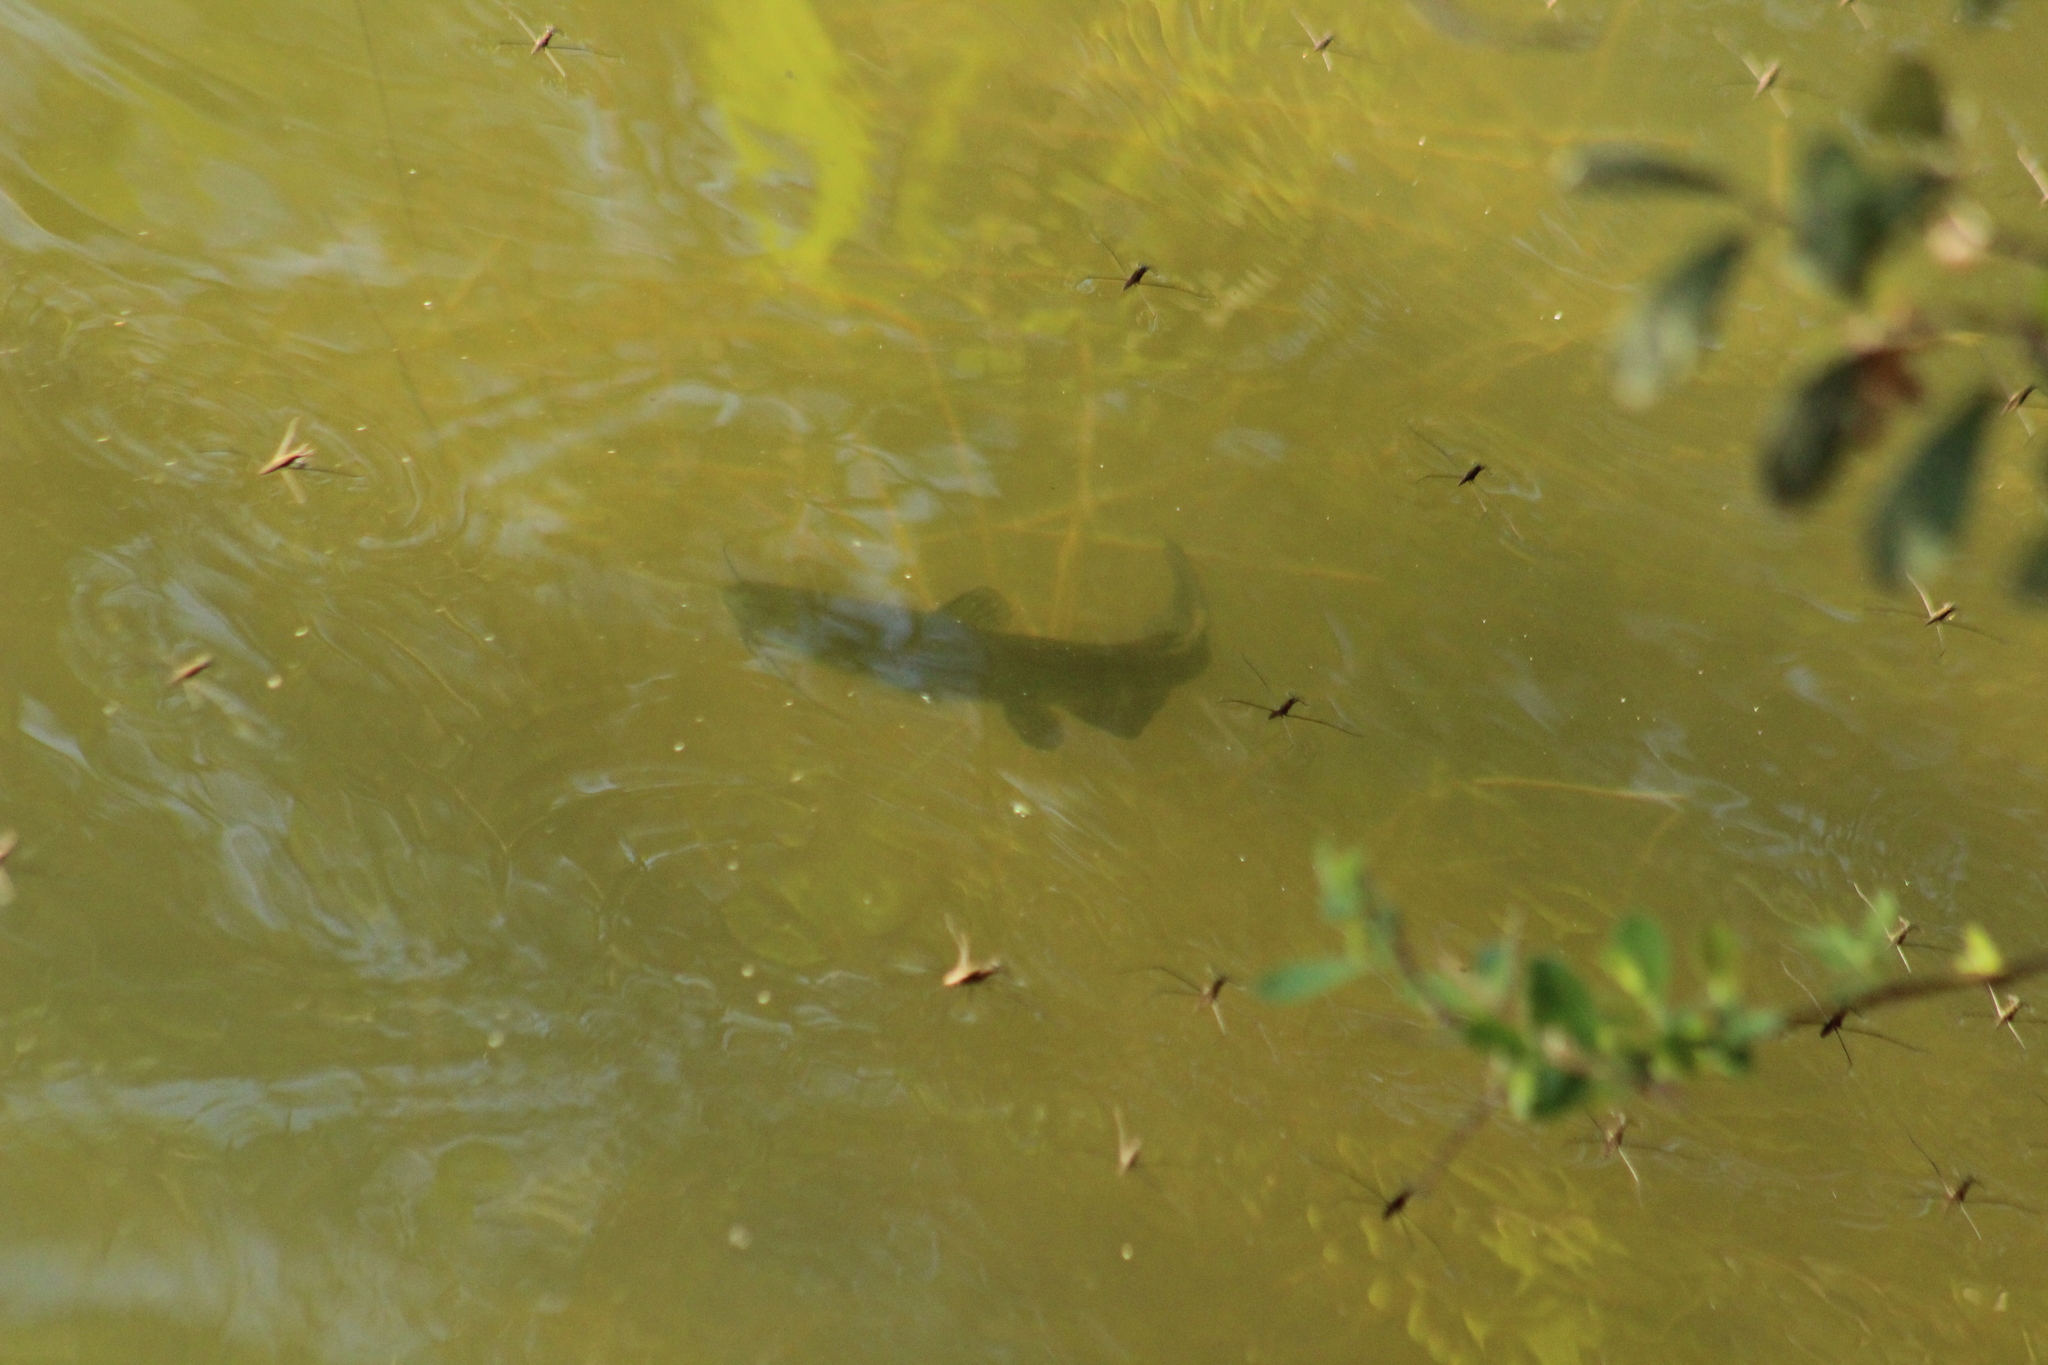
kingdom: Animalia
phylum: Chordata
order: Siluriformes
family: Ictaluridae
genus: Ameiurus
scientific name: Ameiurus melas
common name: Black bullhead
